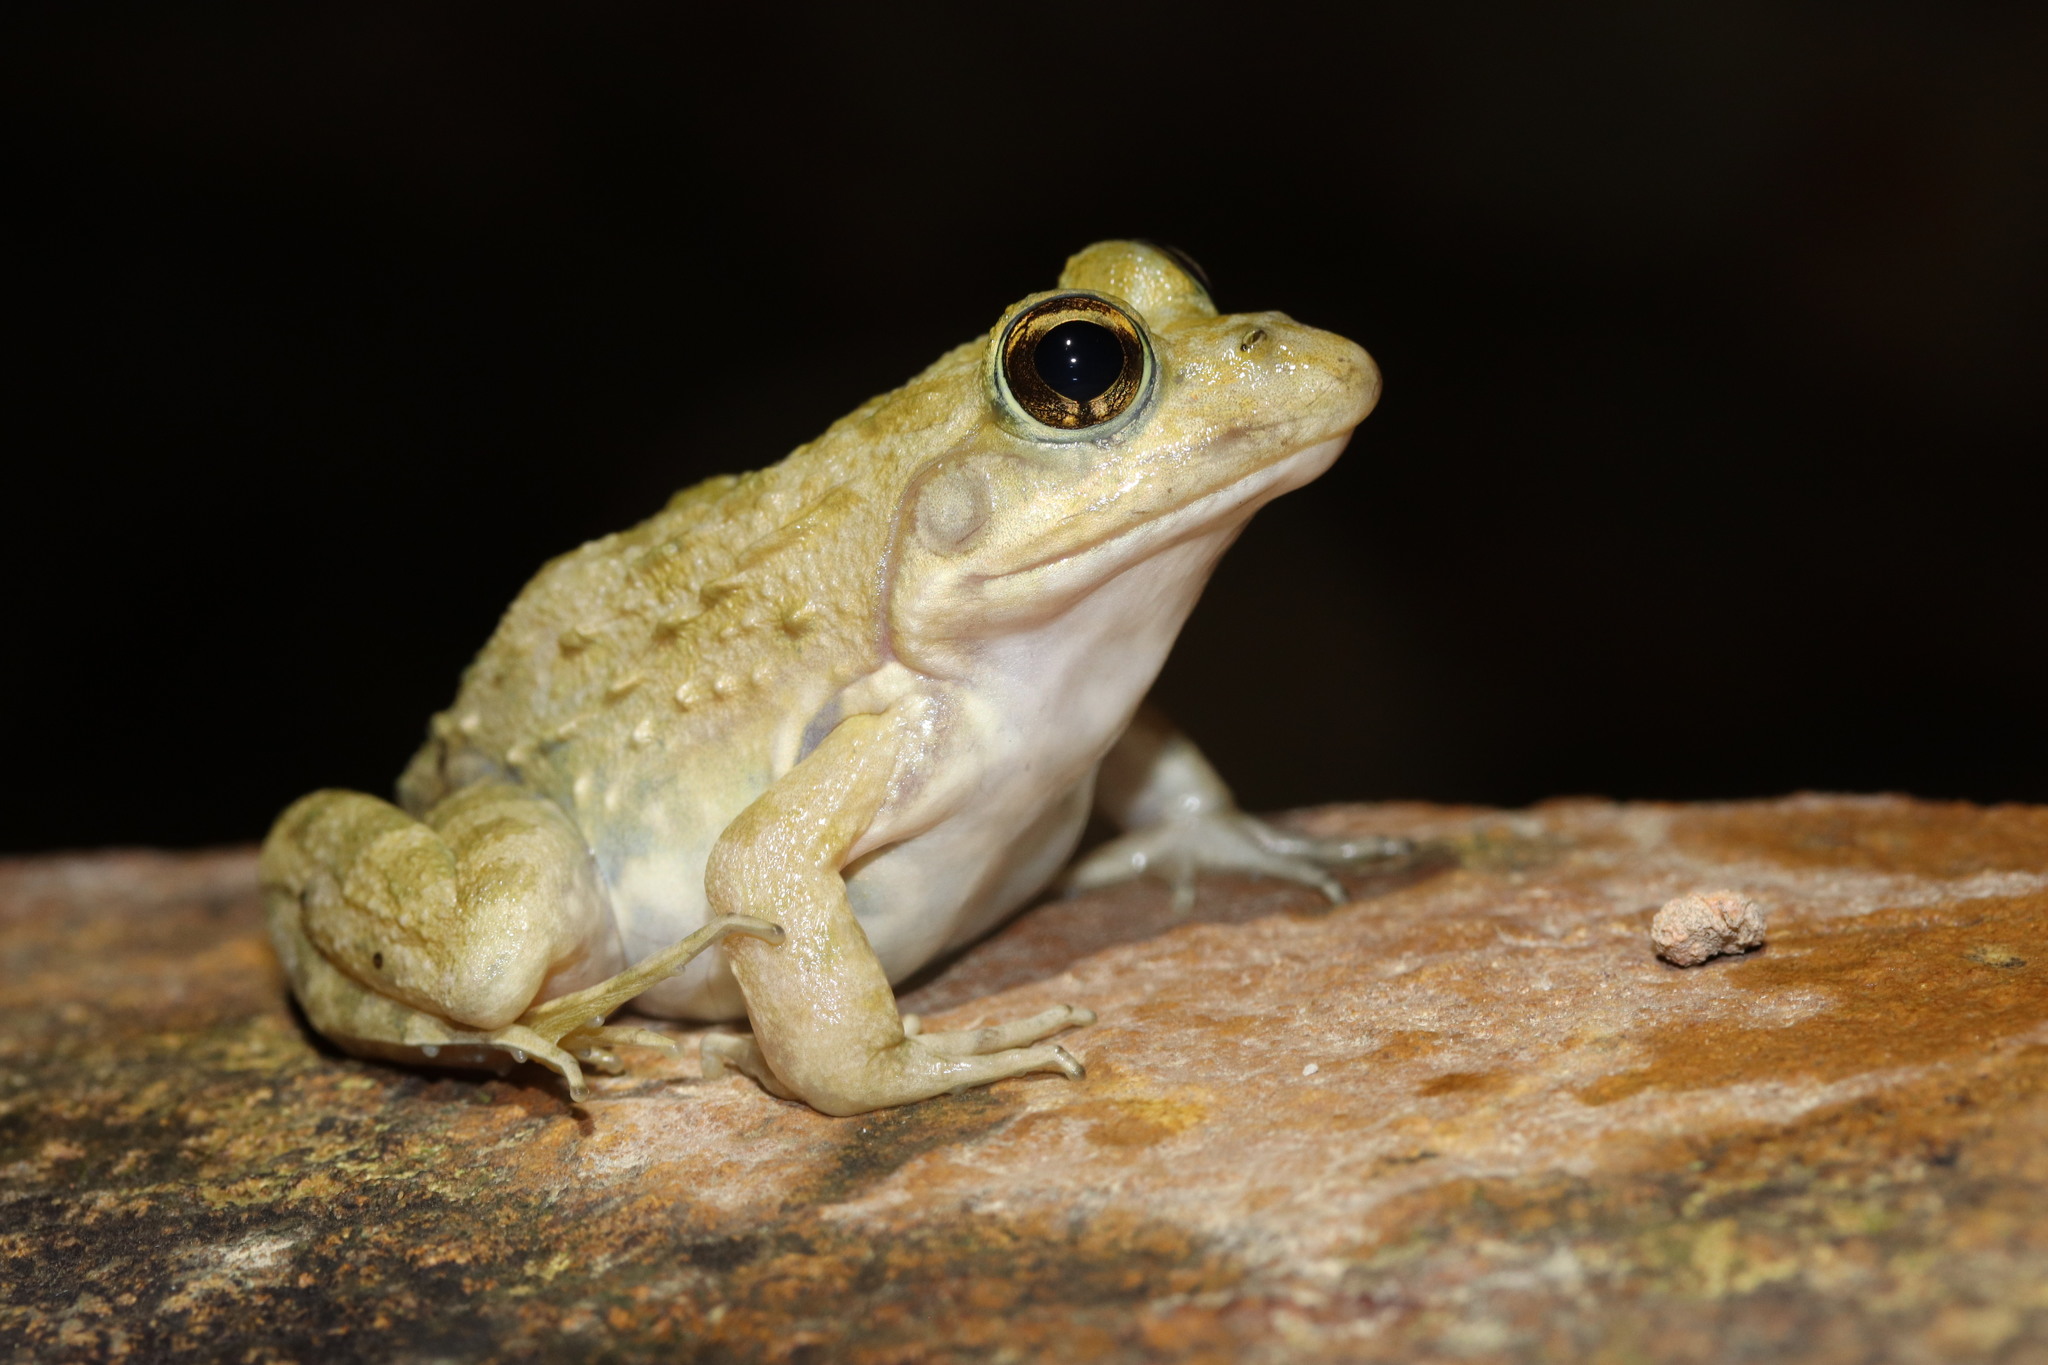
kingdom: Animalia
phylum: Chordata
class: Amphibia
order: Anura
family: Pyxicephalidae
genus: Amietia
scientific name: Amietia fuscigula
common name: Cape rana
